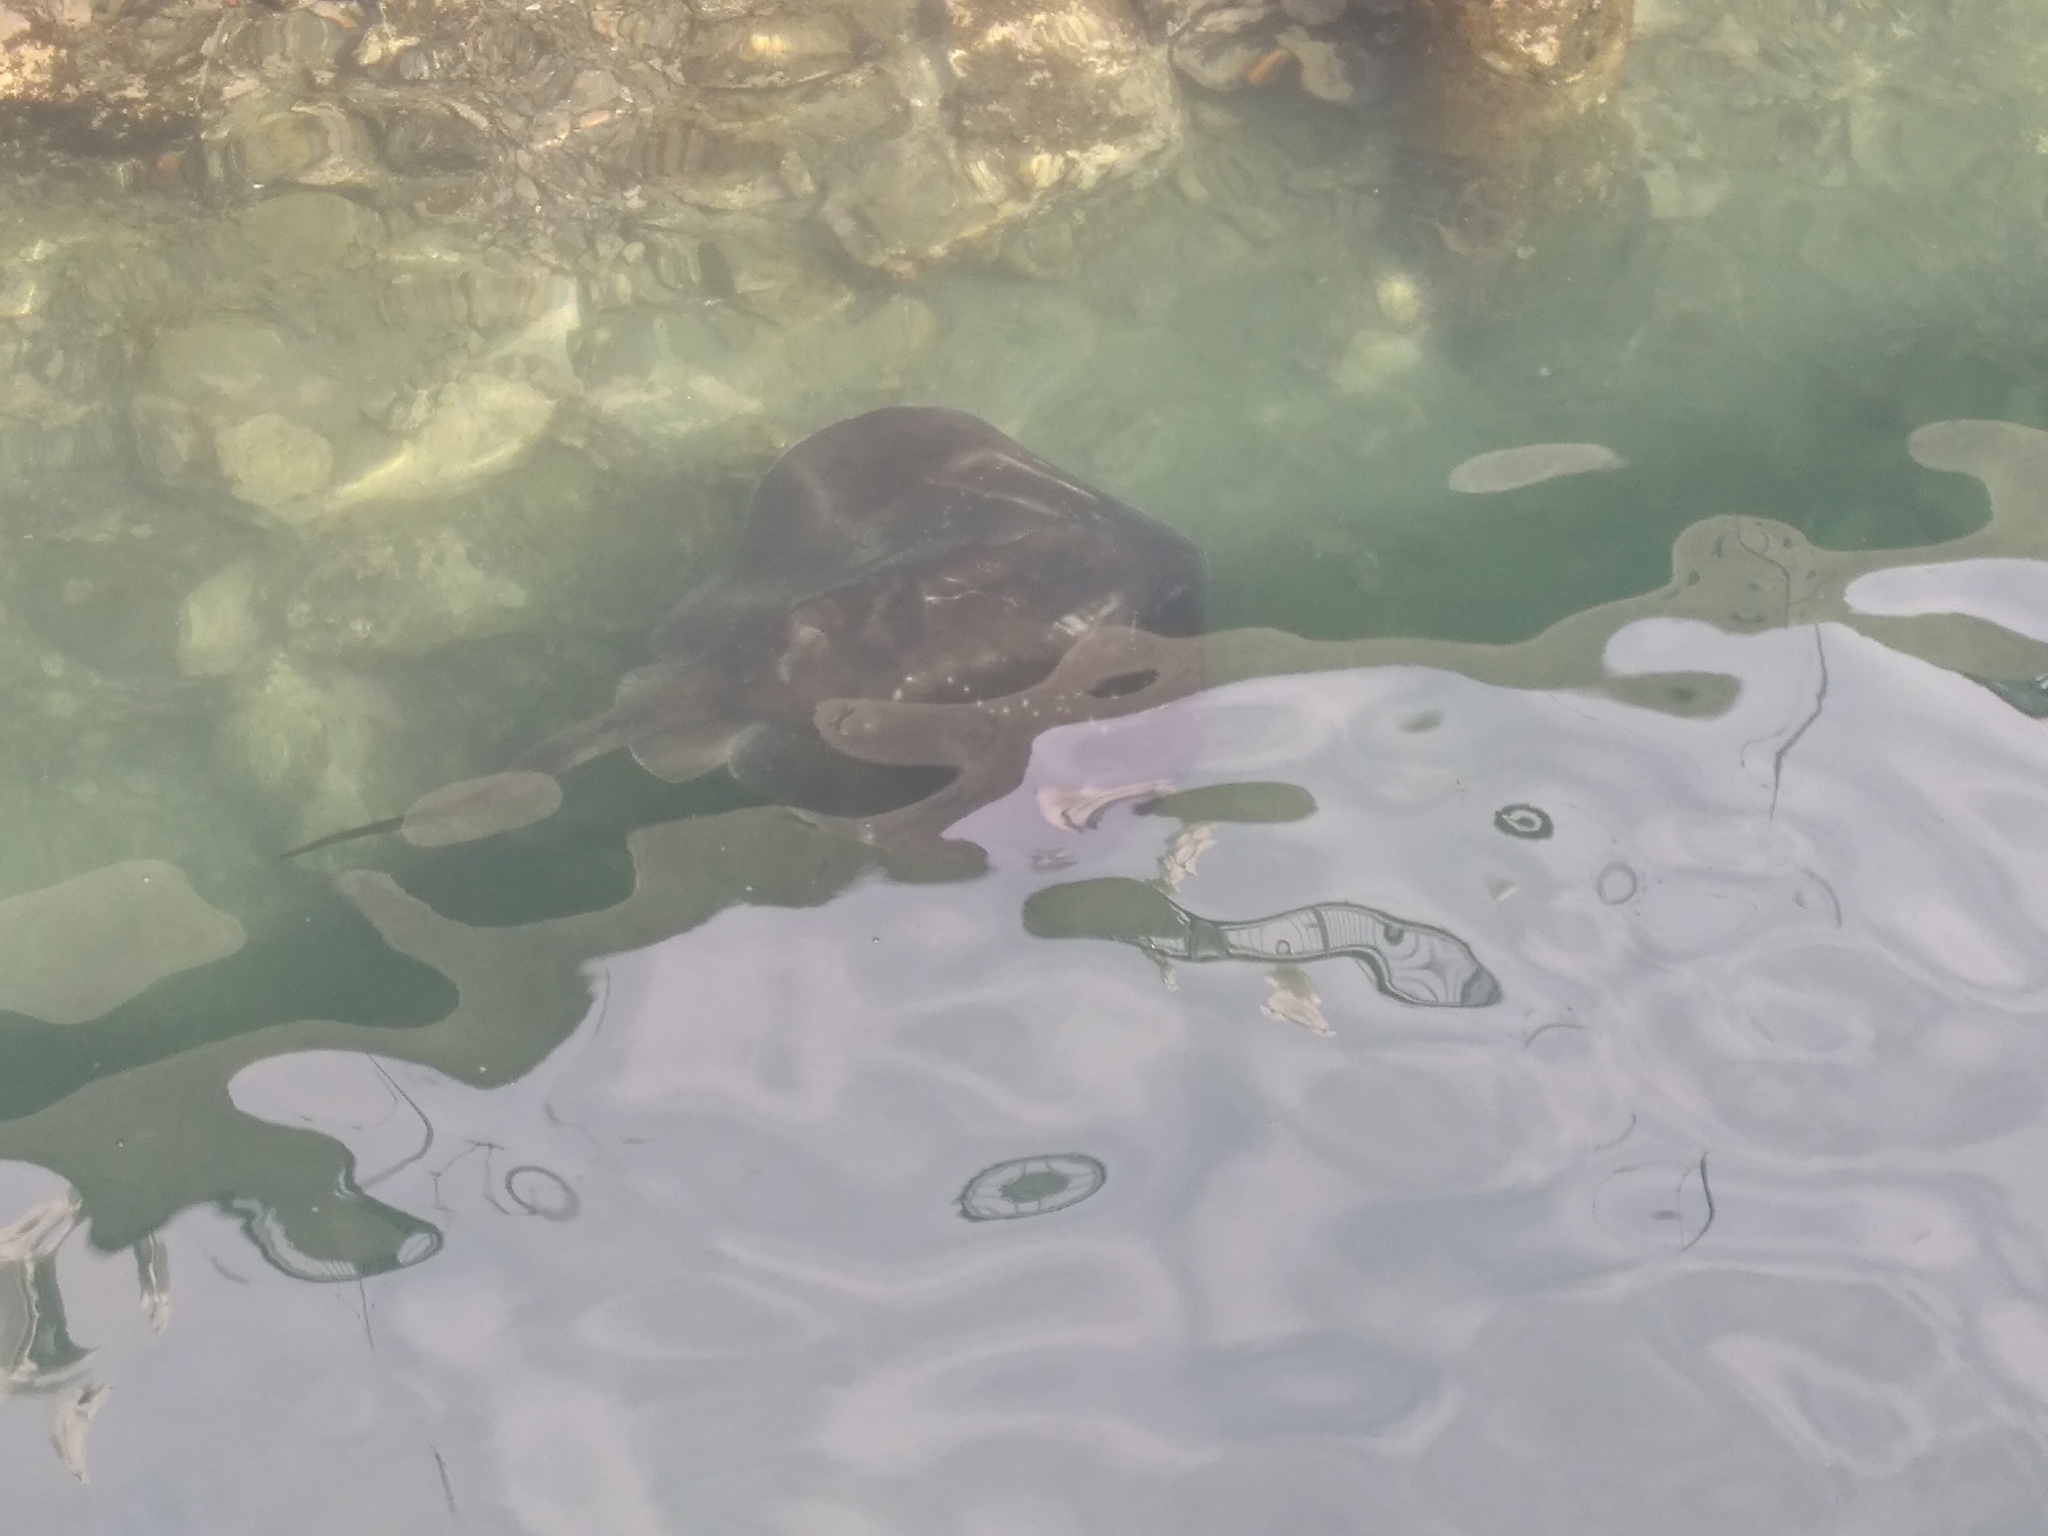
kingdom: Animalia
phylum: Chordata
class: Elasmobranchii
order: Myliobatiformes
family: Dasyatidae
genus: Bathytoshia
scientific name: Bathytoshia brevicaudata
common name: Short-tail stingray
